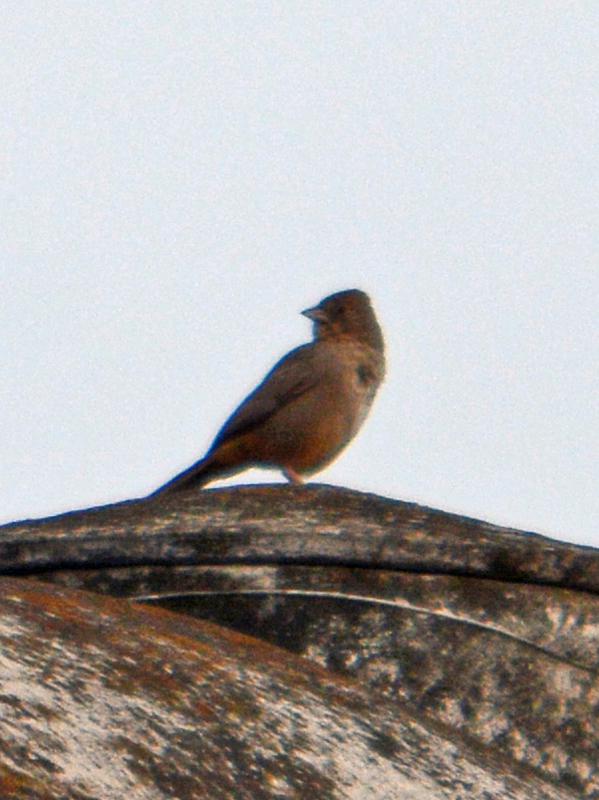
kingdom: Animalia
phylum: Chordata
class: Aves
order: Passeriformes
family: Passerellidae
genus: Melozone
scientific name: Melozone fusca
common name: Canyon towhee
